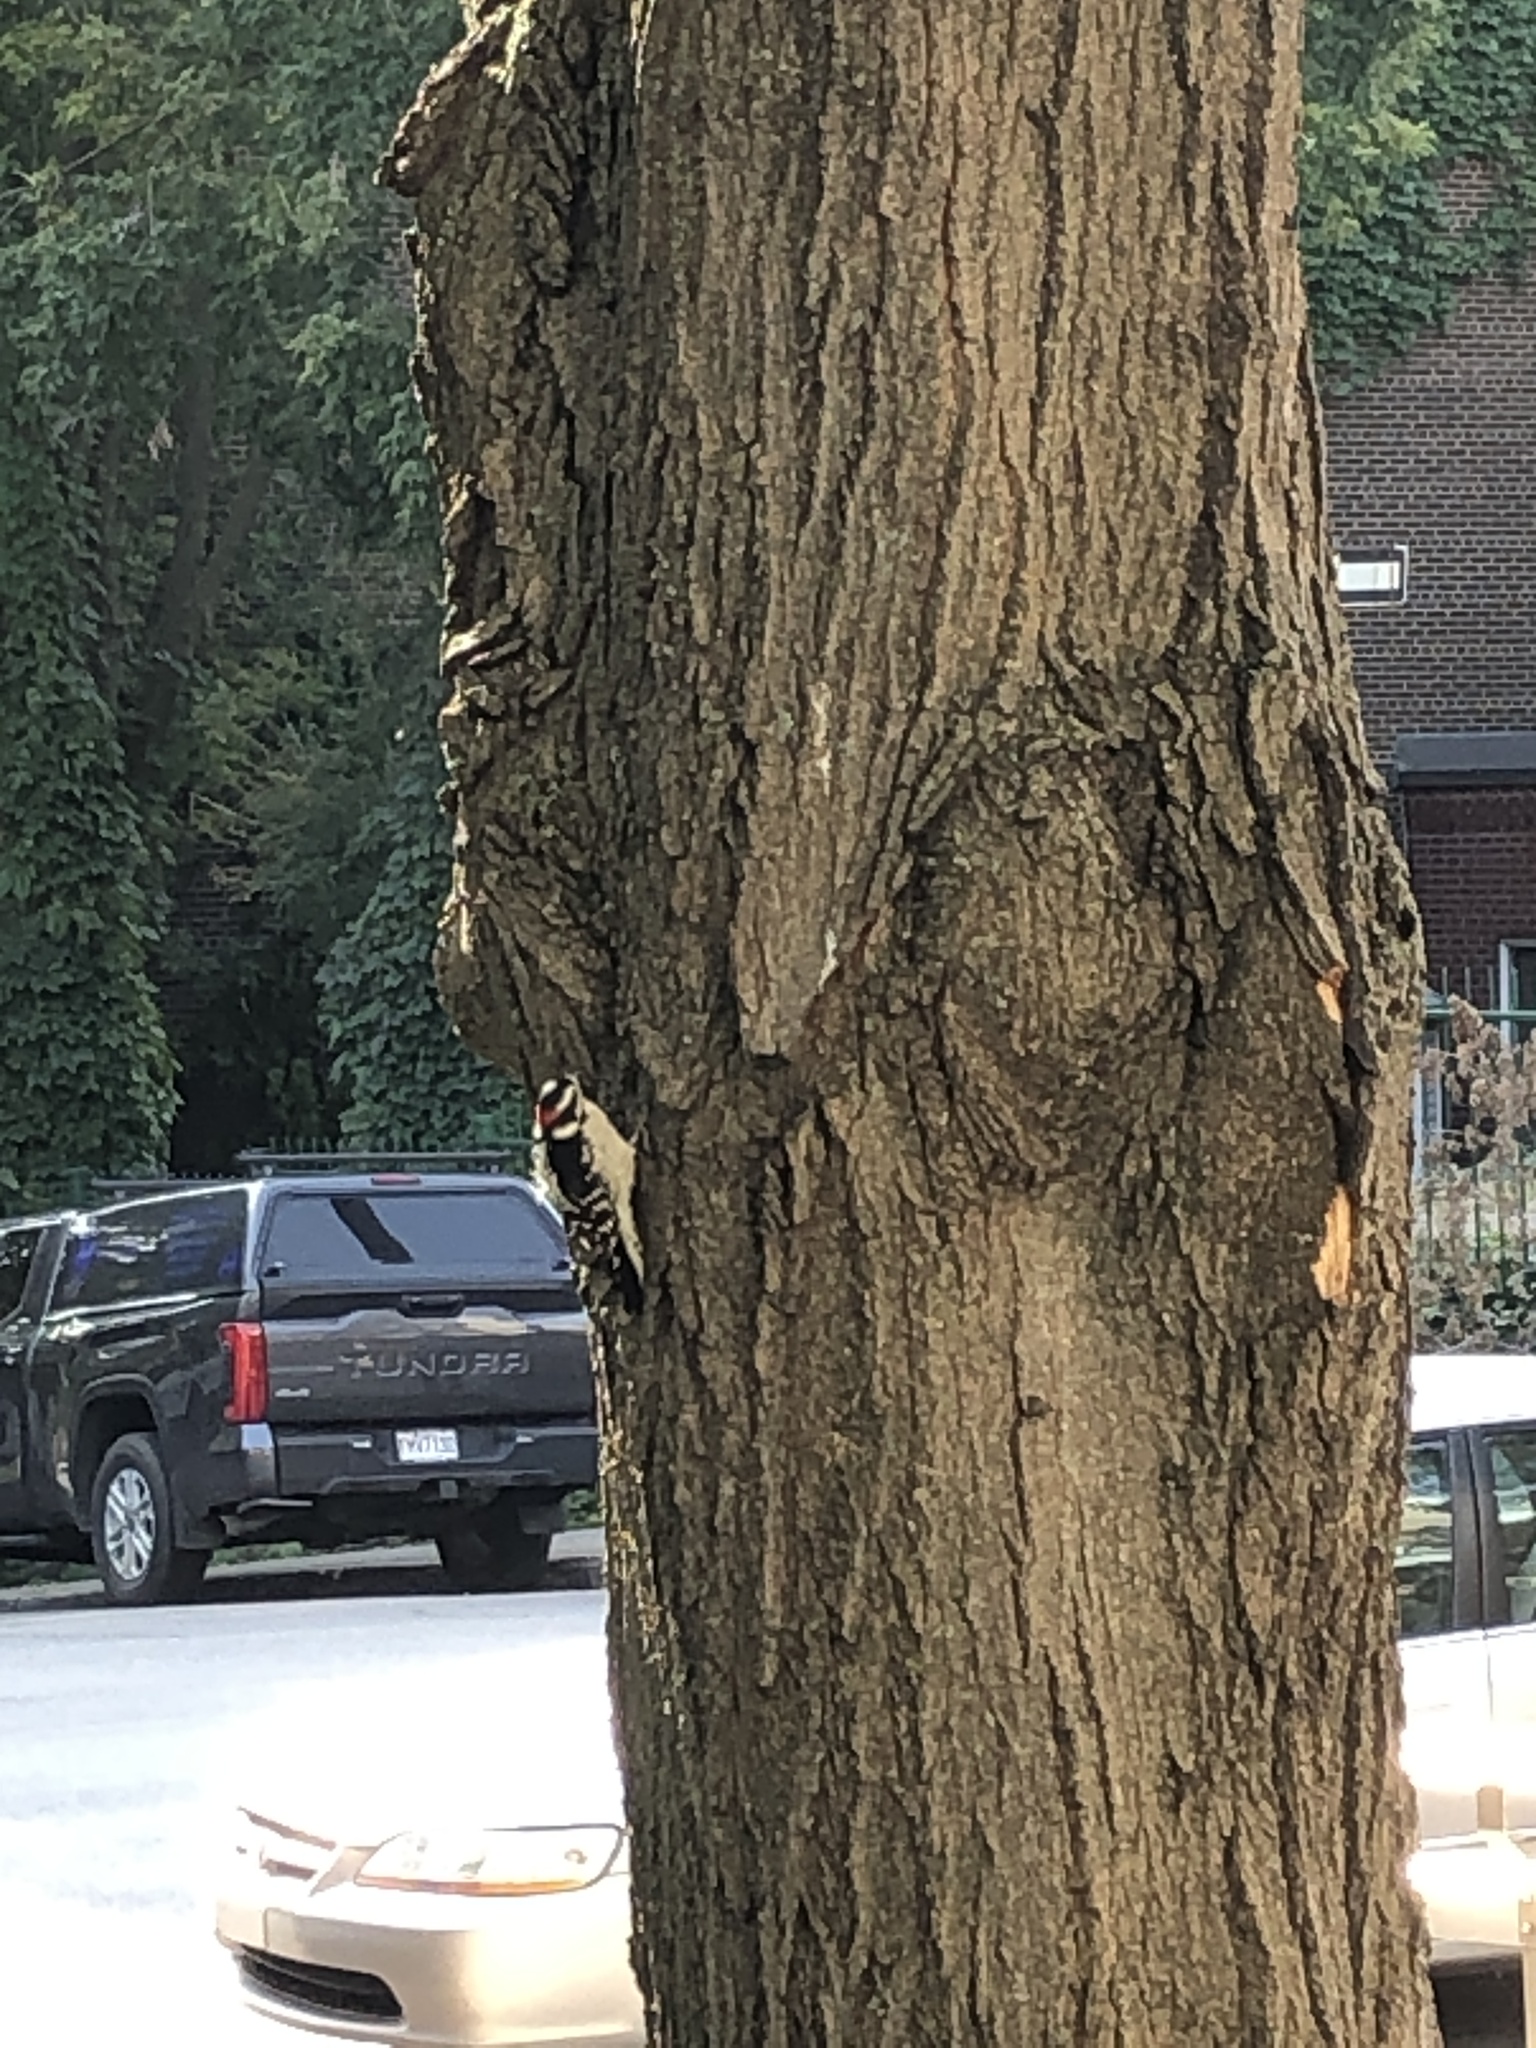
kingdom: Animalia
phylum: Chordata
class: Aves
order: Piciformes
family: Picidae
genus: Dryobates
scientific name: Dryobates pubescens
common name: Downy woodpecker
